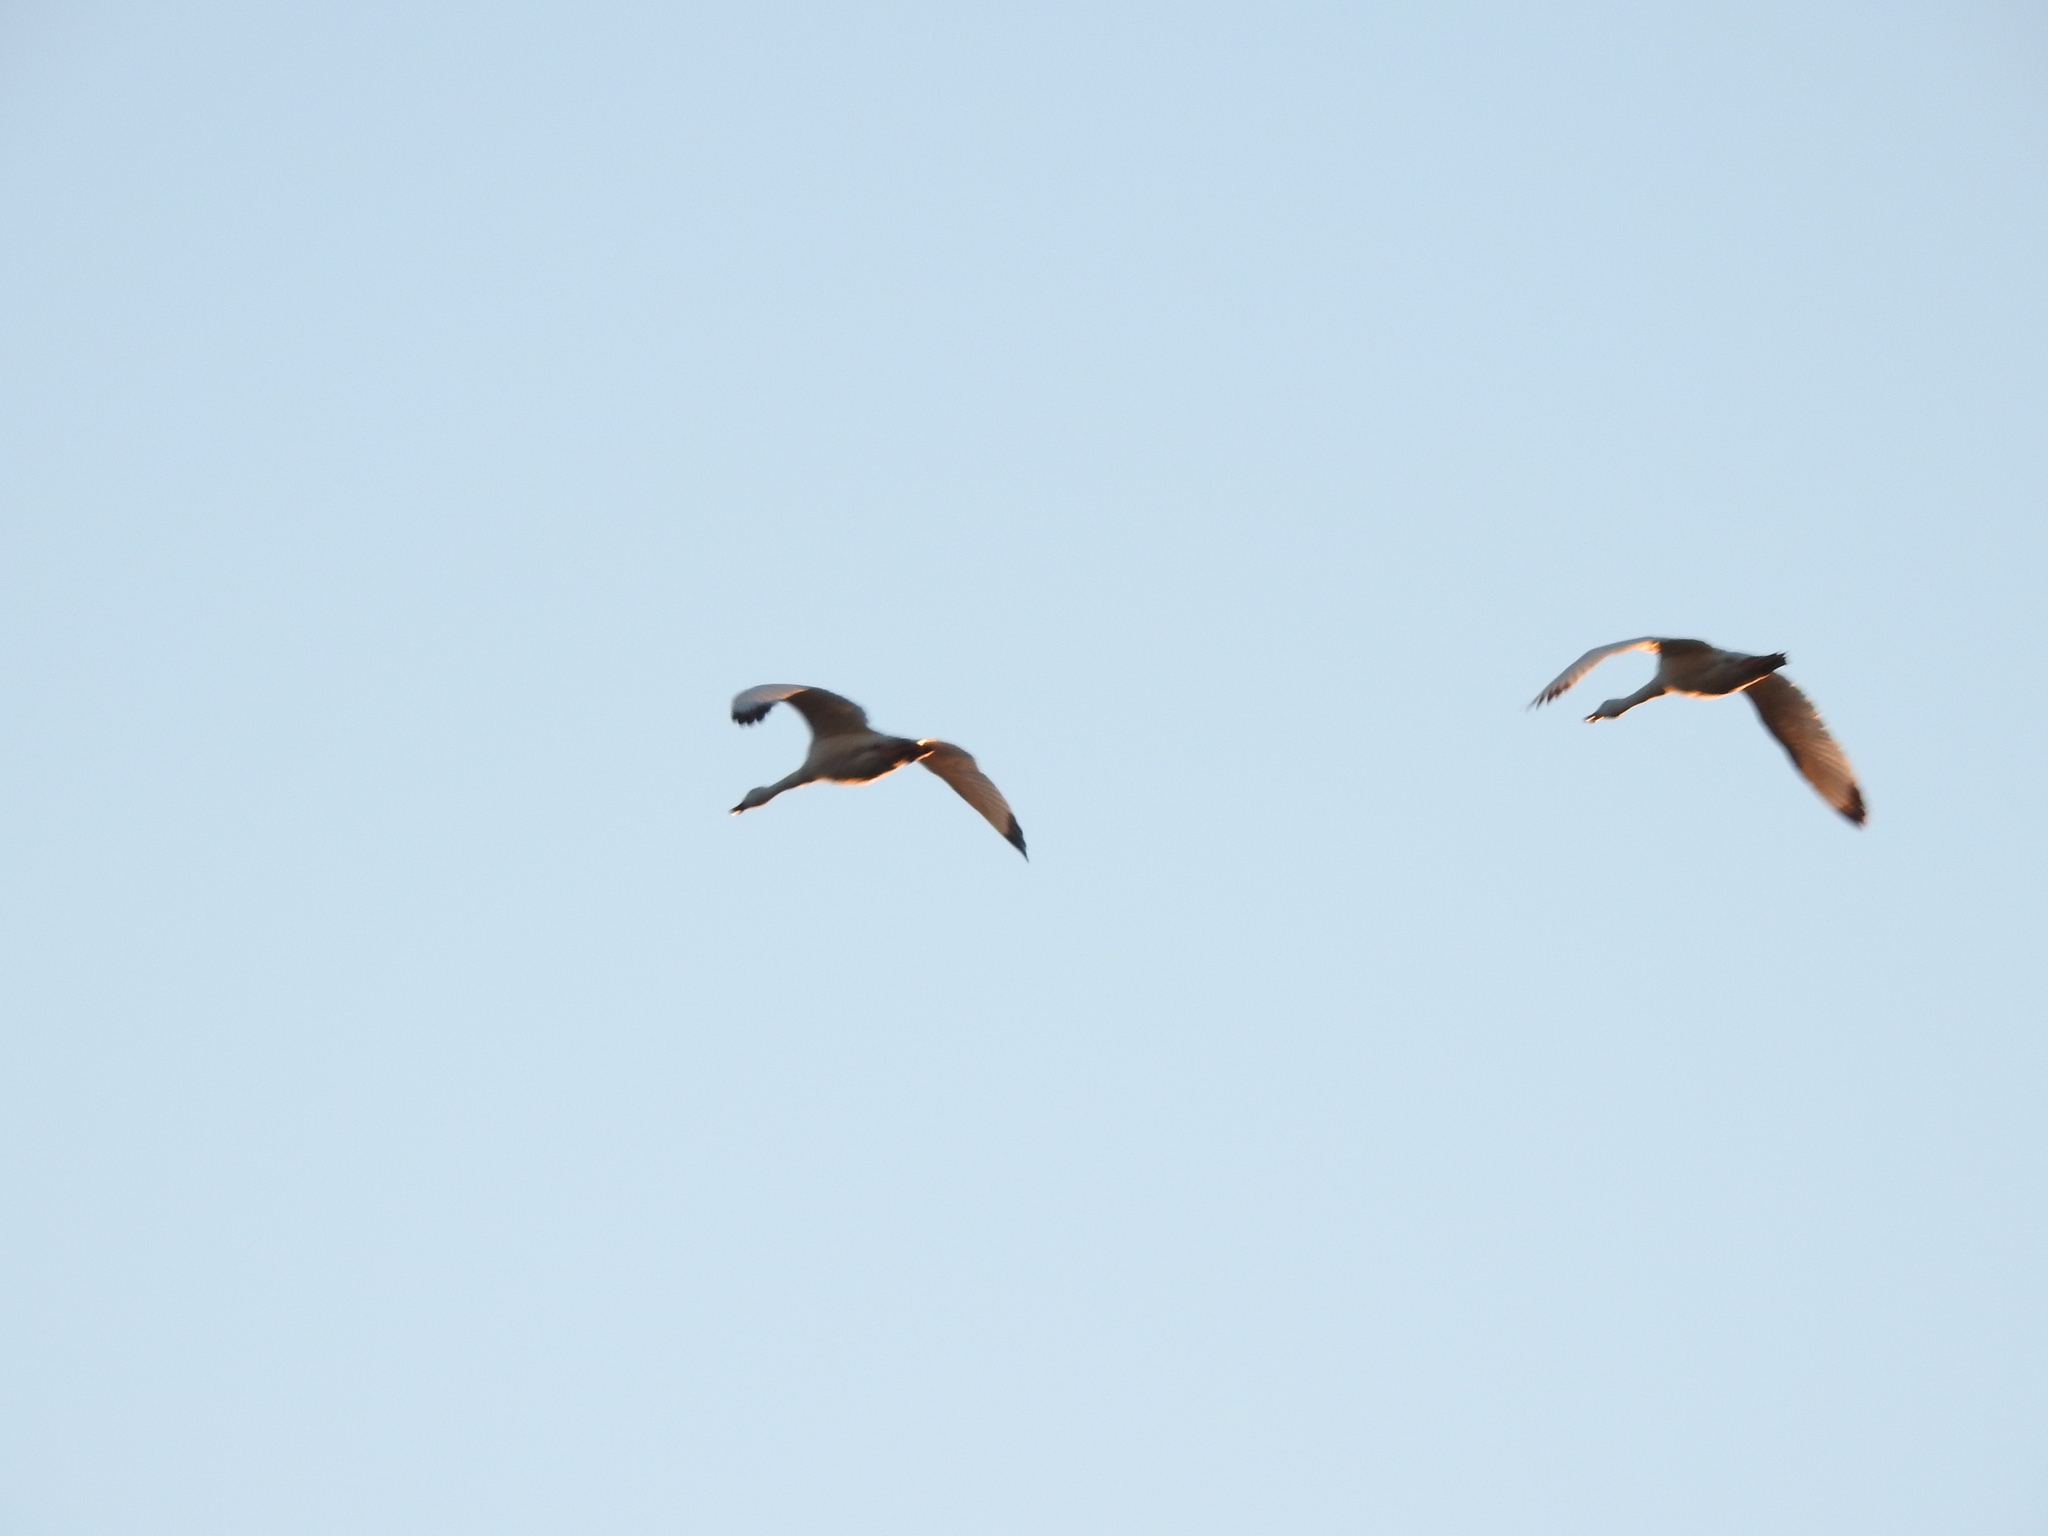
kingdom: Animalia
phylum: Chordata
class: Aves
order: Anseriformes
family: Anatidae
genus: Coscoroba
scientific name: Coscoroba coscoroba
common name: Coscoroba swan
